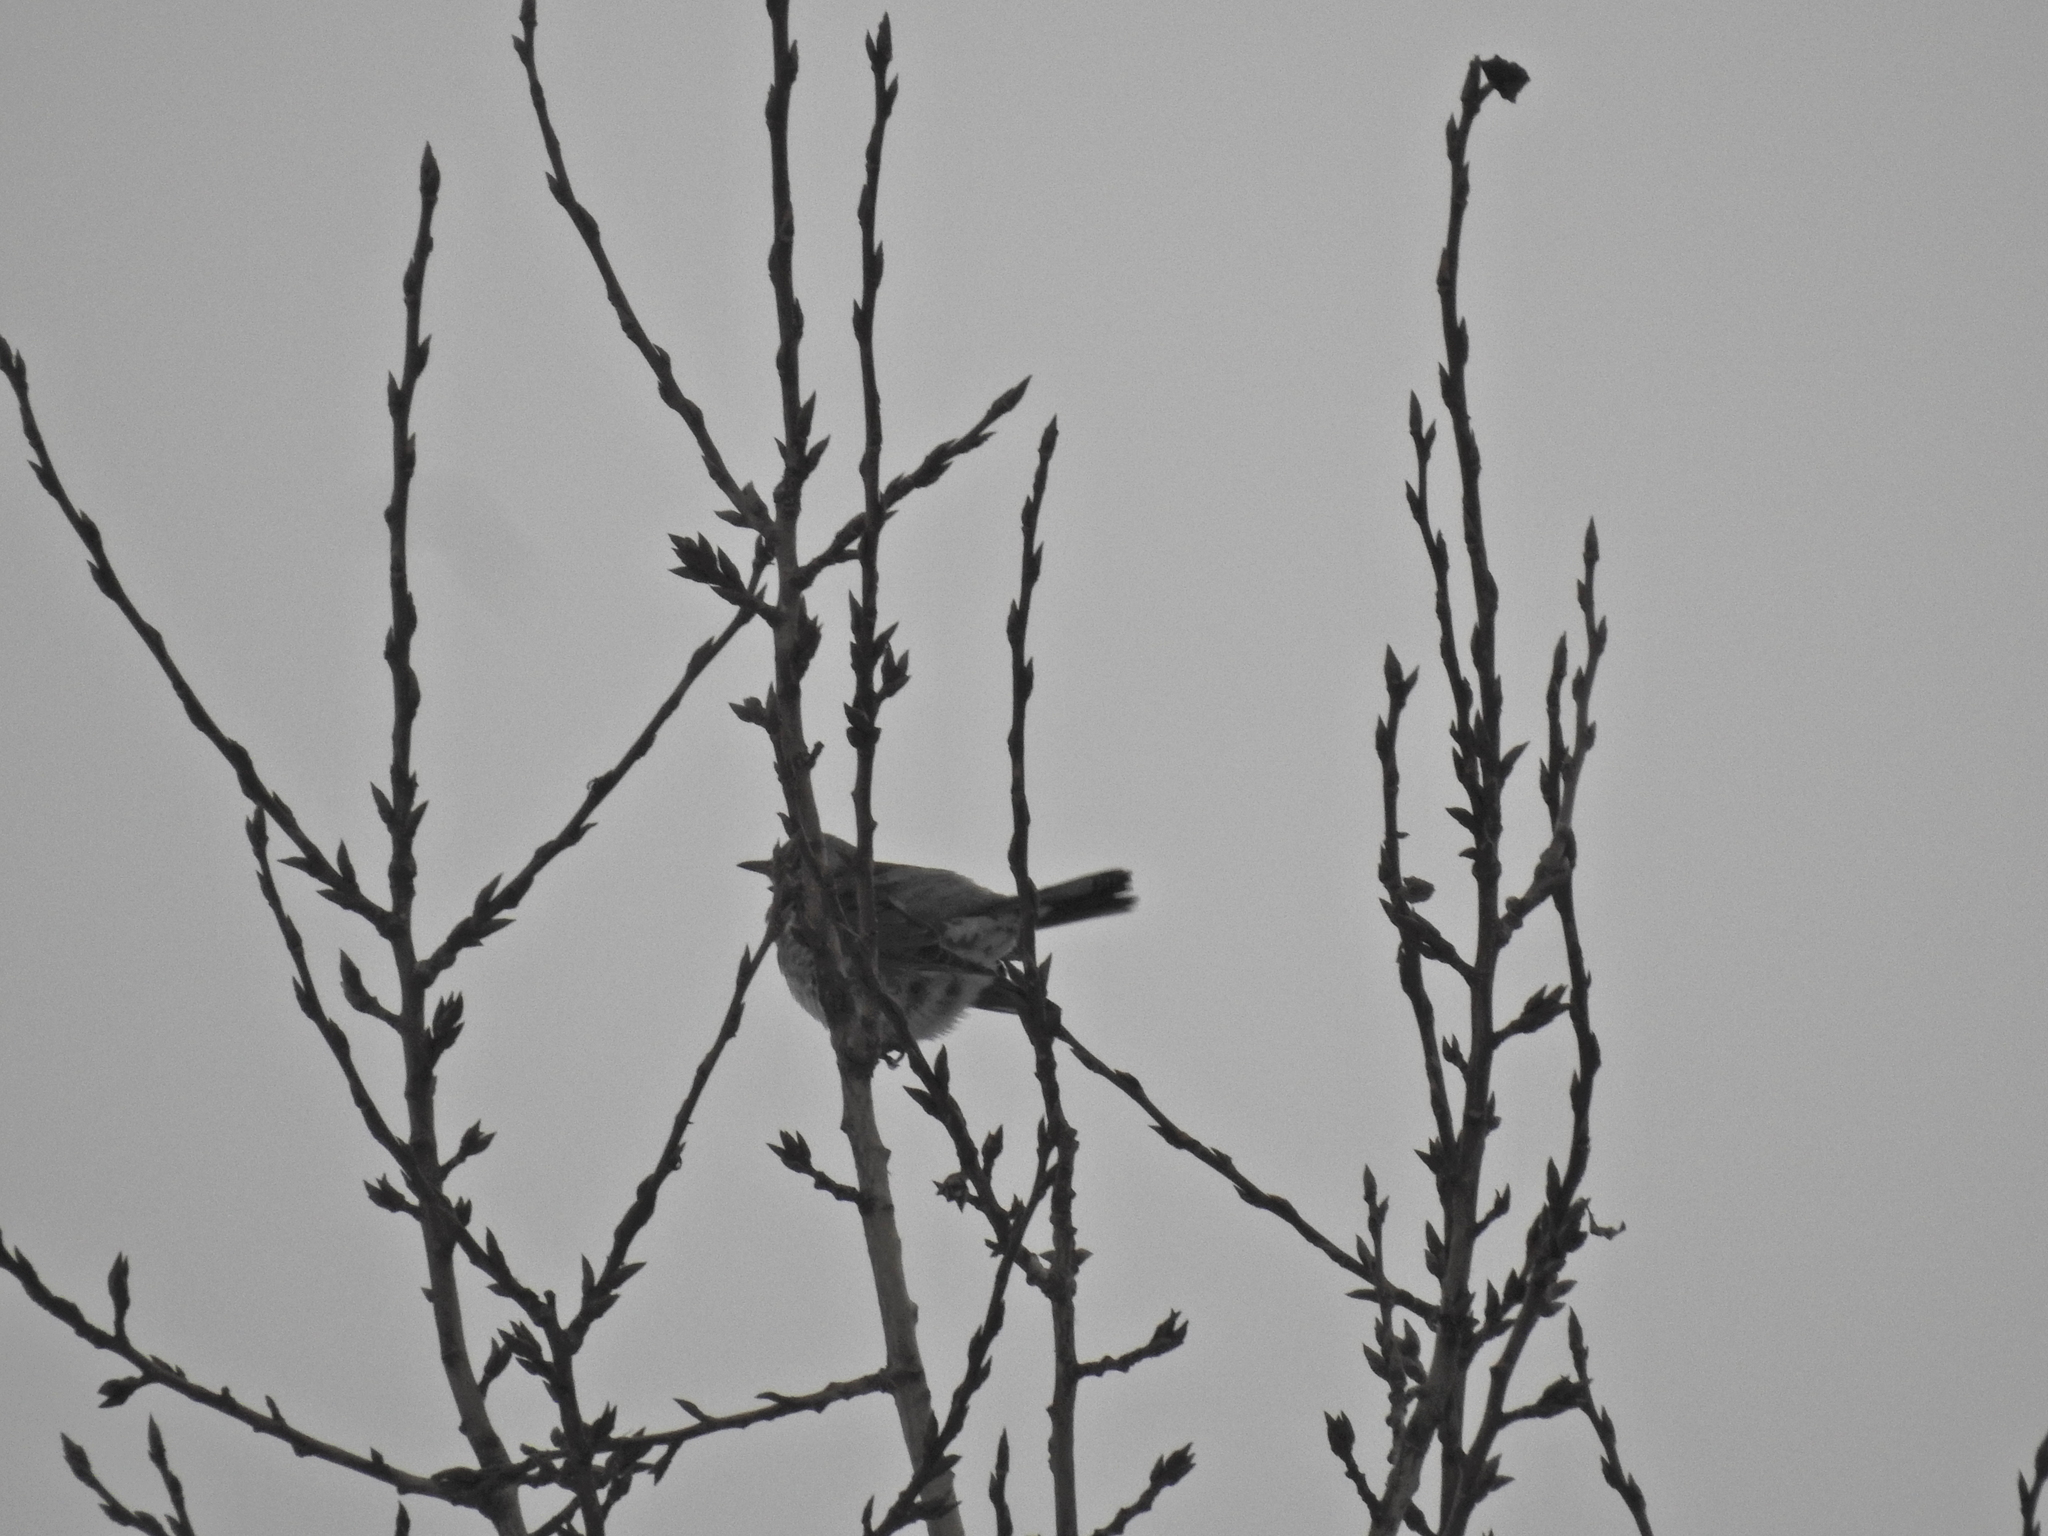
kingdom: Animalia
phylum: Chordata
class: Aves
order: Passeriformes
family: Turdidae
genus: Turdus
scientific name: Turdus pilaris
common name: Fieldfare
